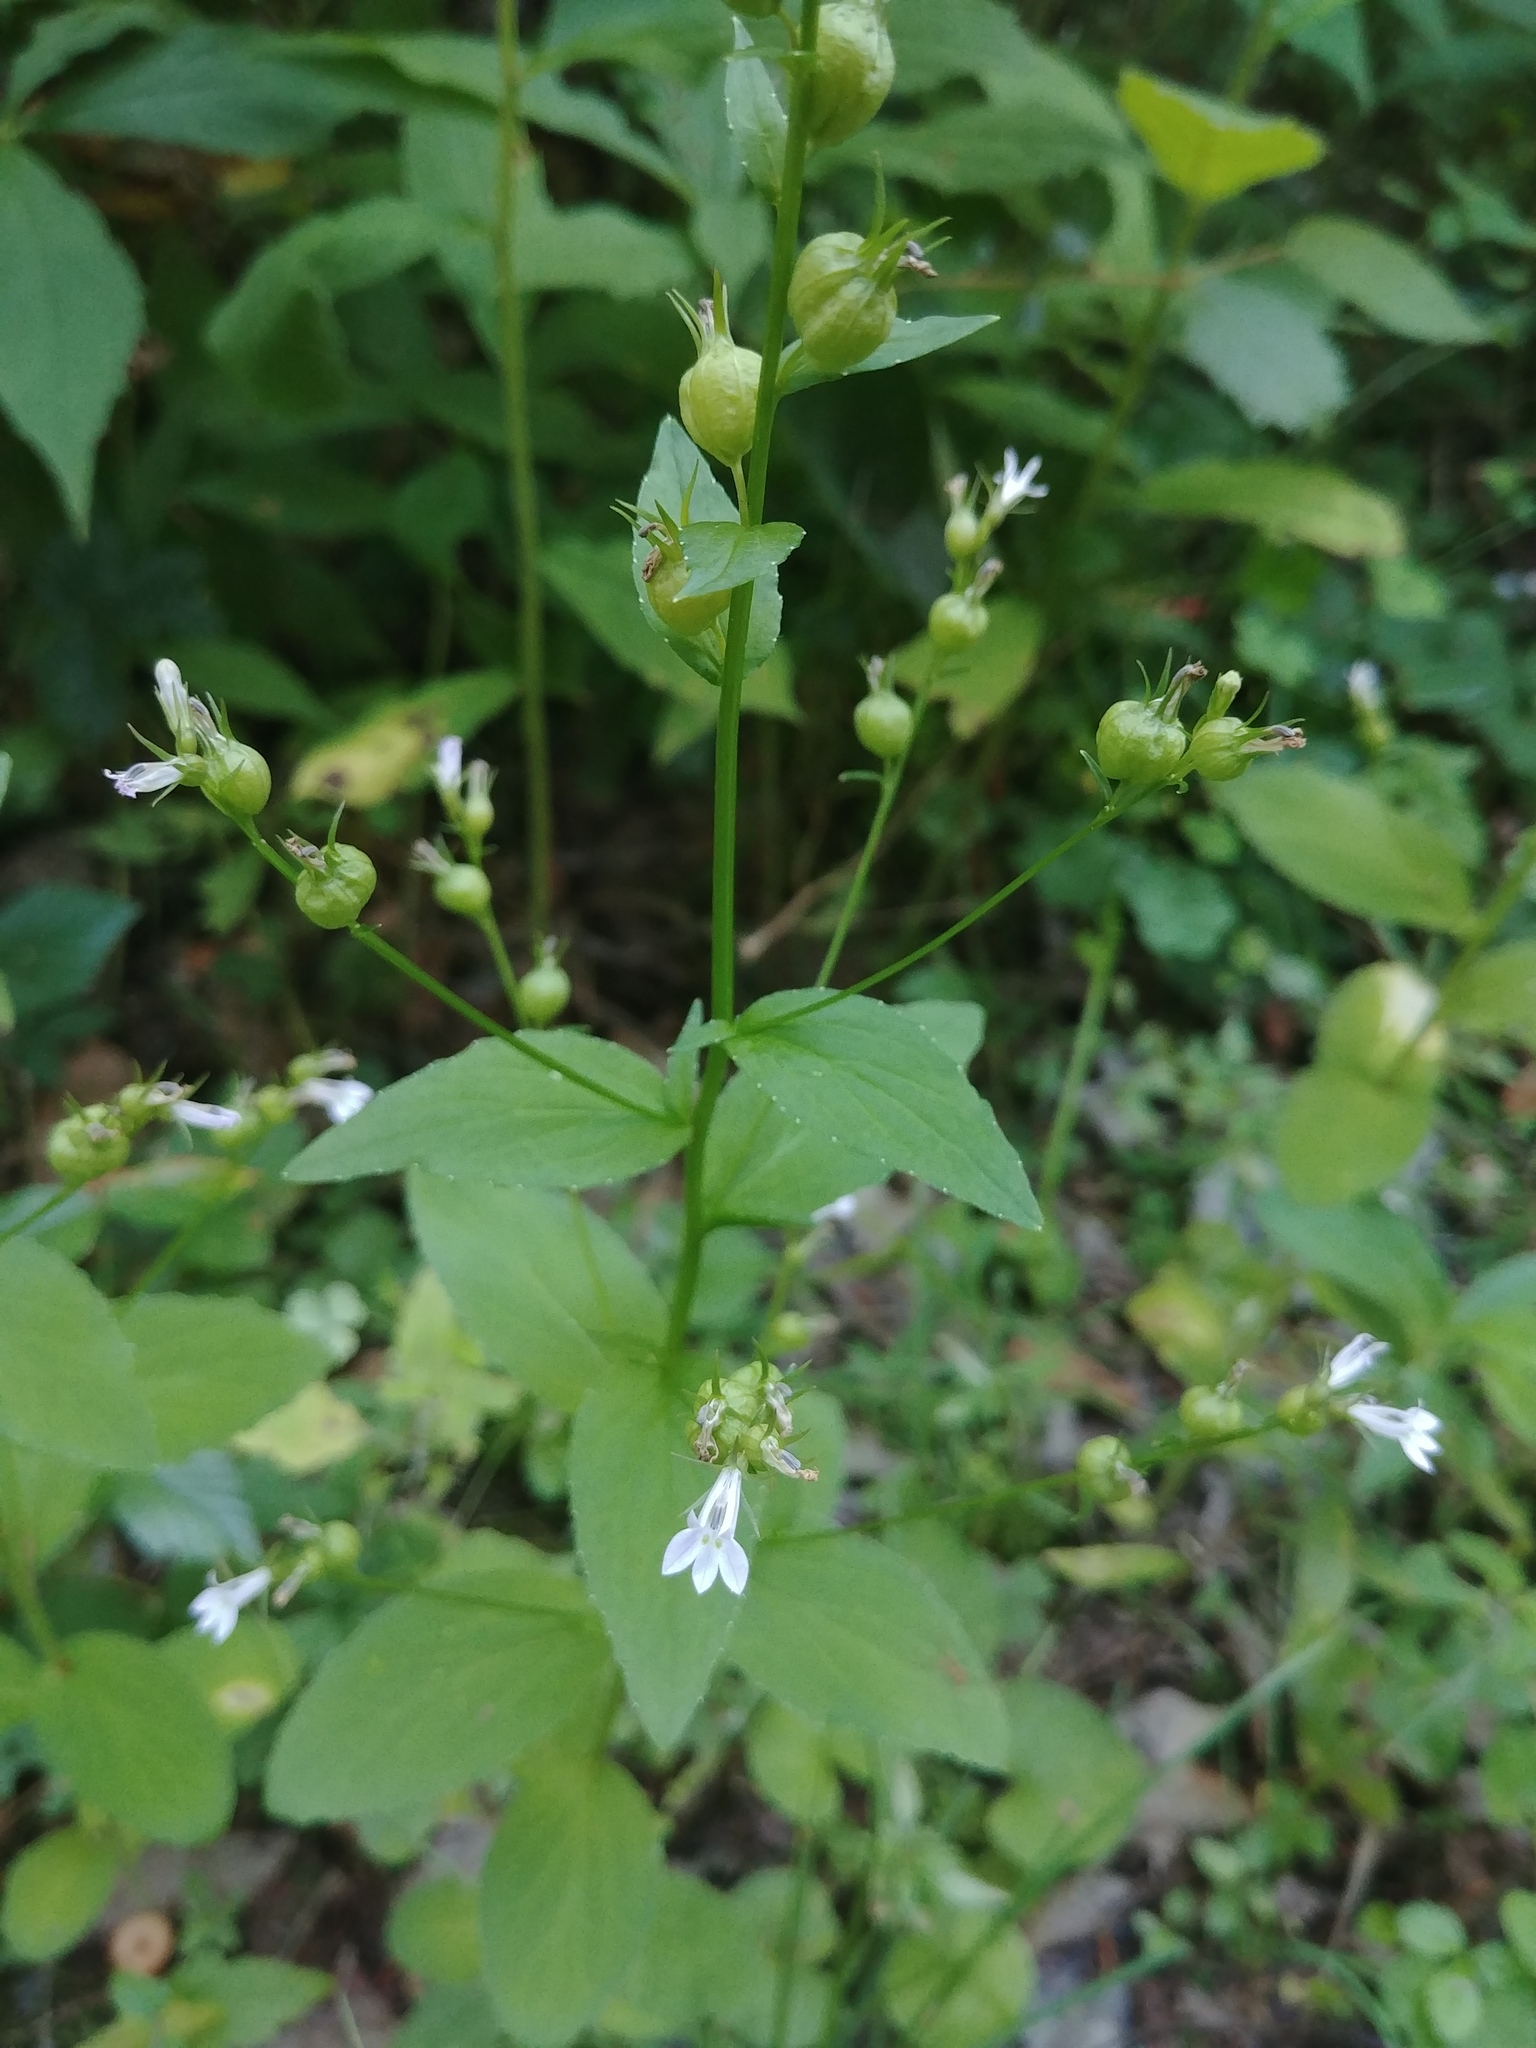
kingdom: Plantae
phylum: Tracheophyta
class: Magnoliopsida
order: Asterales
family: Campanulaceae
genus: Lobelia
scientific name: Lobelia inflata
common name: Indian tobacco
